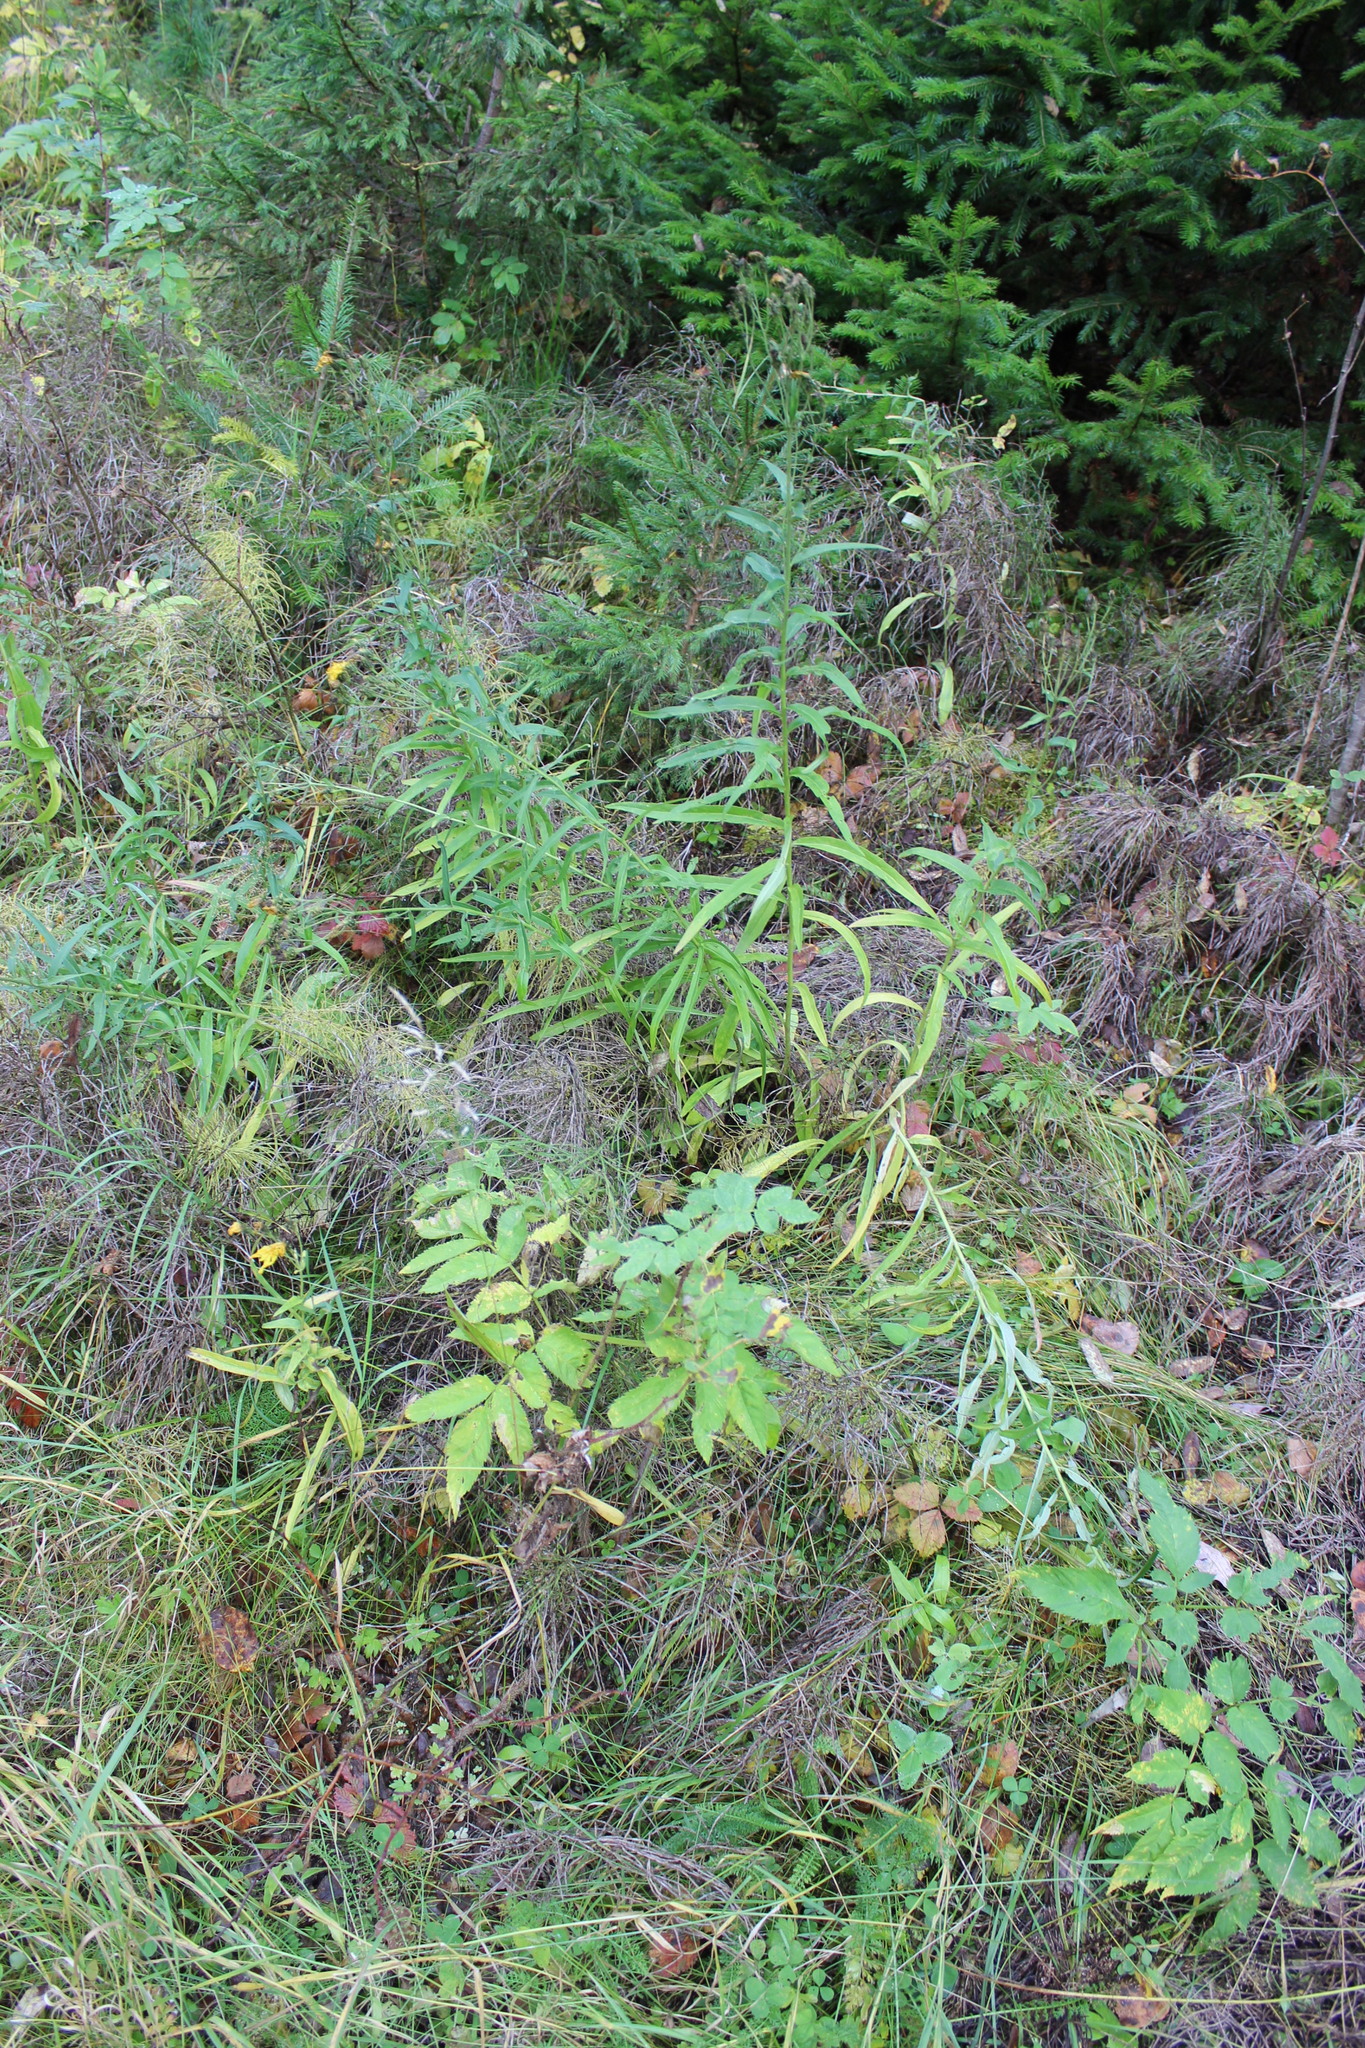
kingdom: Plantae
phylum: Tracheophyta
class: Magnoliopsida
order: Asterales
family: Asteraceae
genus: Hieracium
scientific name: Hieracium umbellatum
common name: Northern hawkweed
